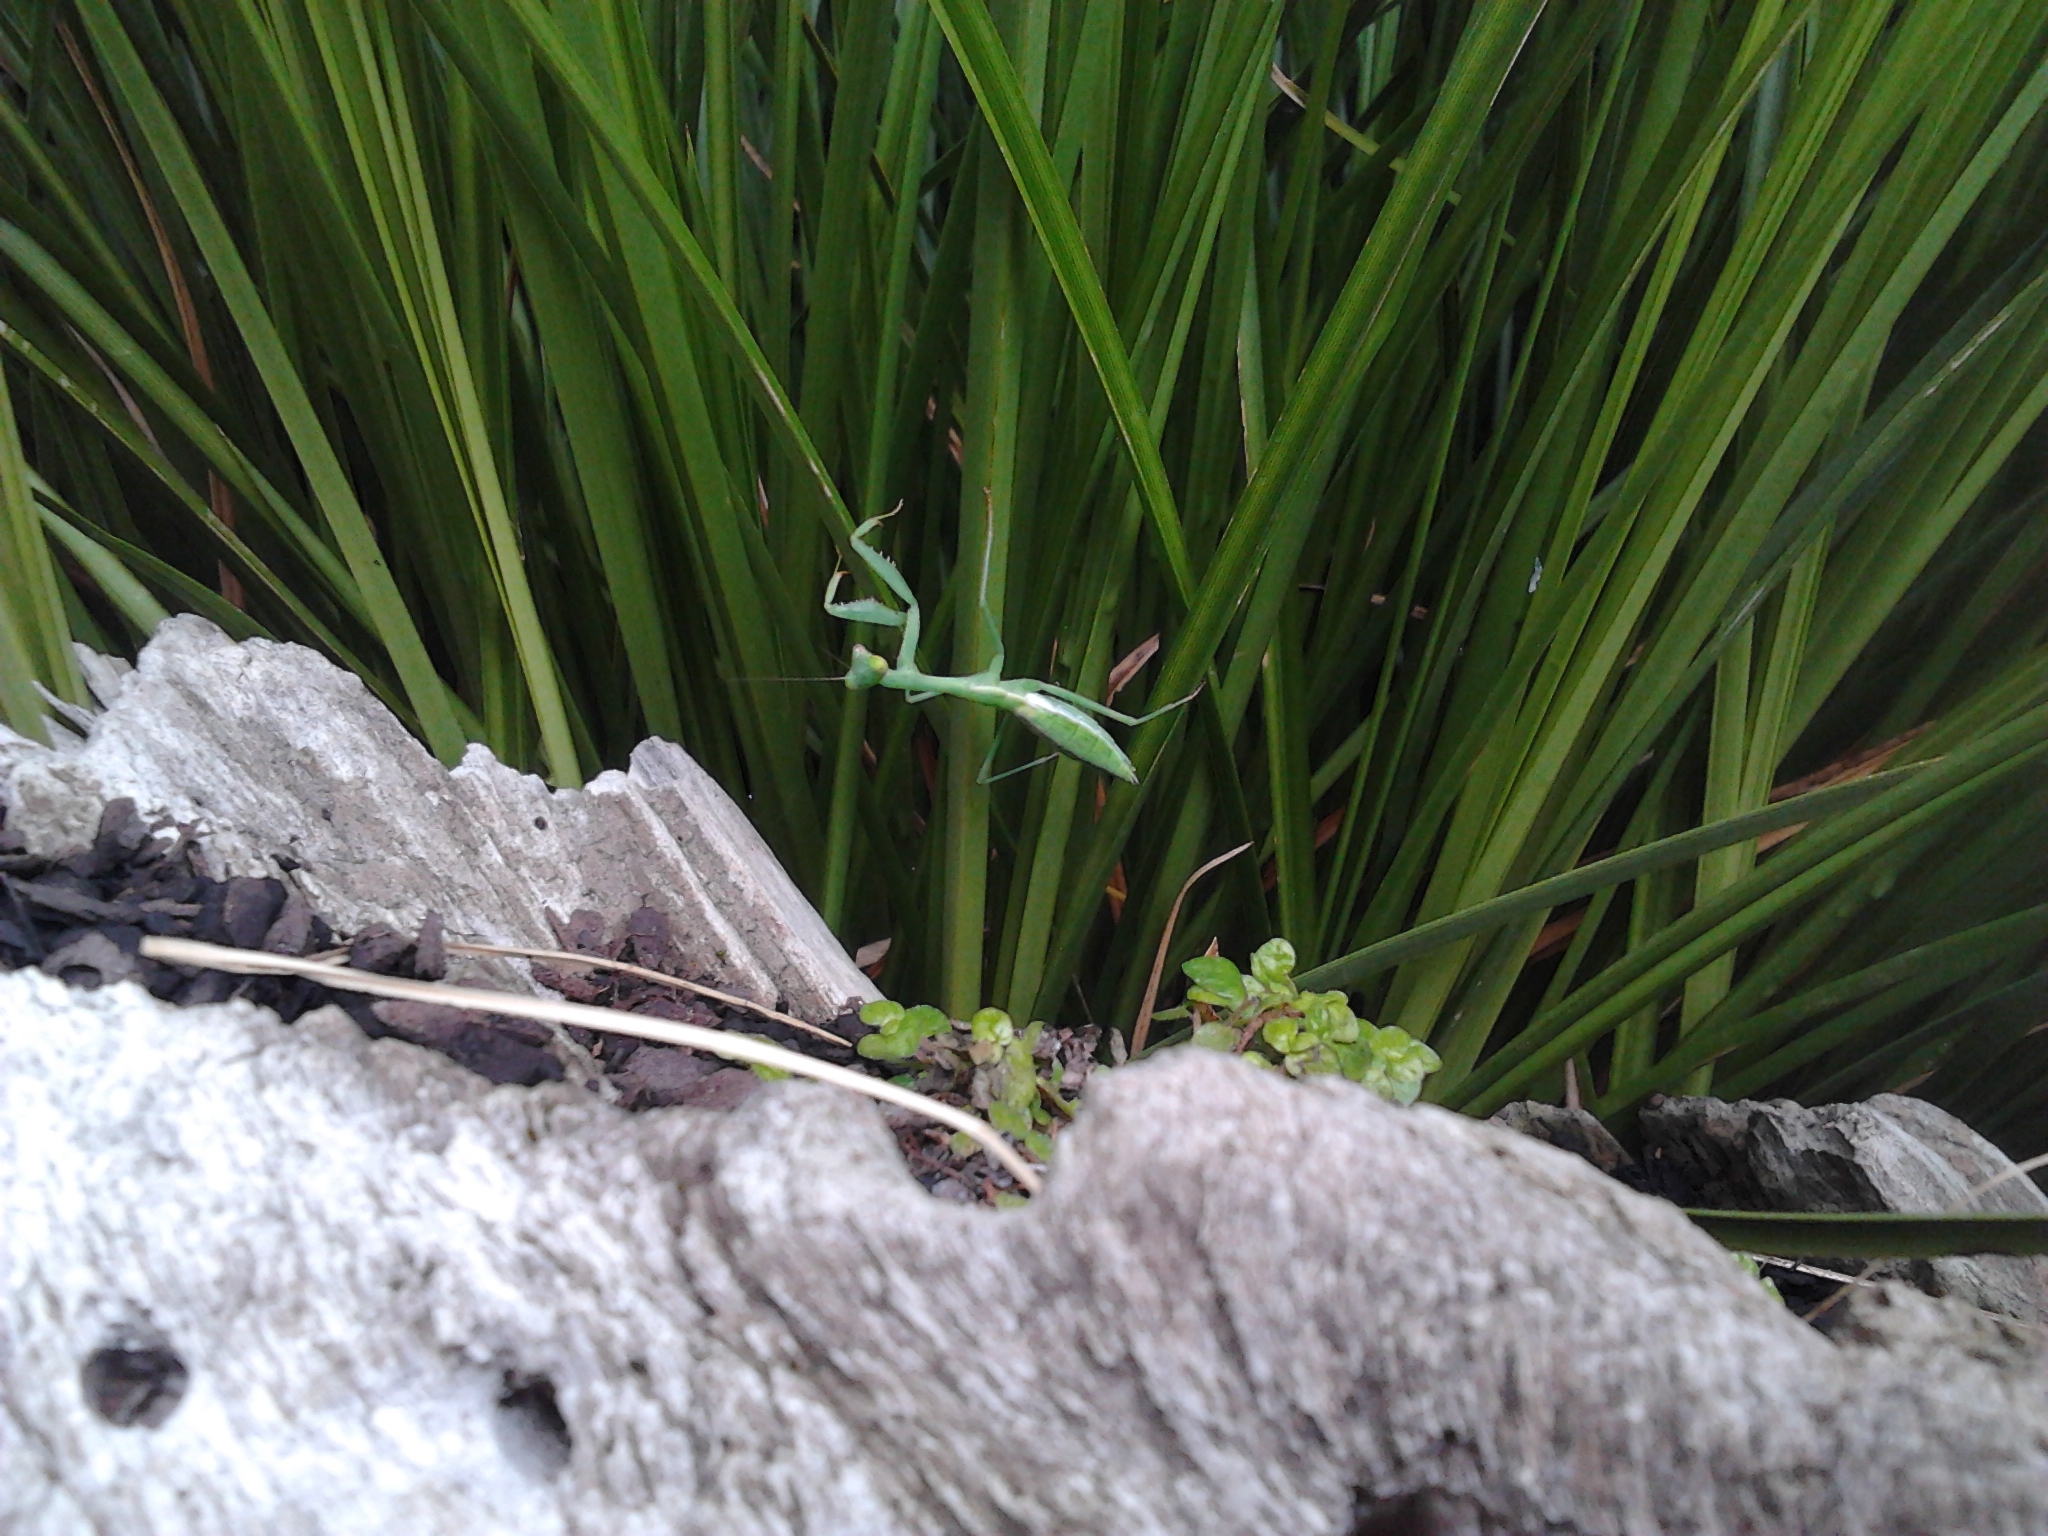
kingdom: Animalia
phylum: Arthropoda
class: Insecta
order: Mantodea
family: Miomantidae
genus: Miomantis
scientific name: Miomantis caffra
